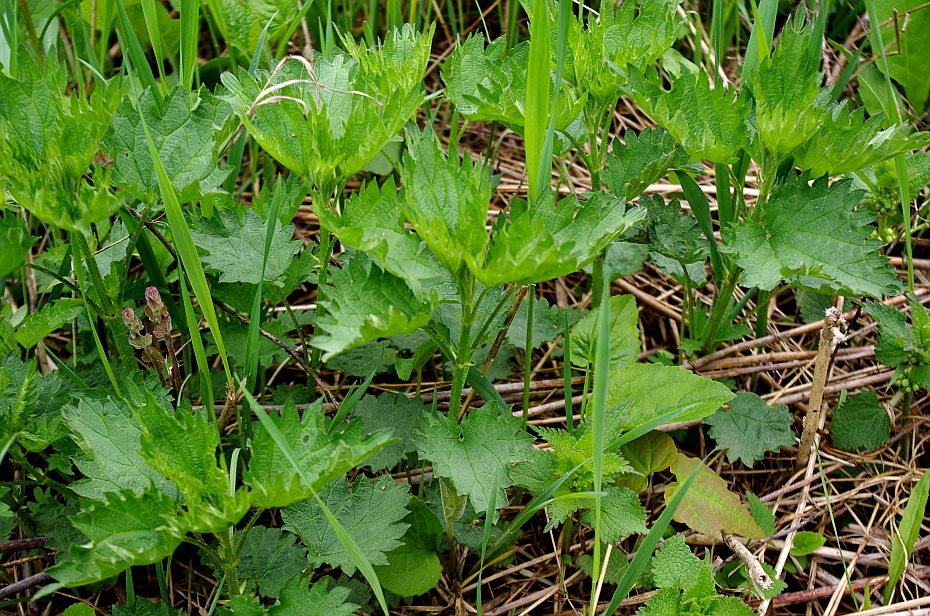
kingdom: Plantae
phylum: Tracheophyta
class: Magnoliopsida
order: Rosales
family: Urticaceae
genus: Urtica
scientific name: Urtica dioica
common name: Common nettle
